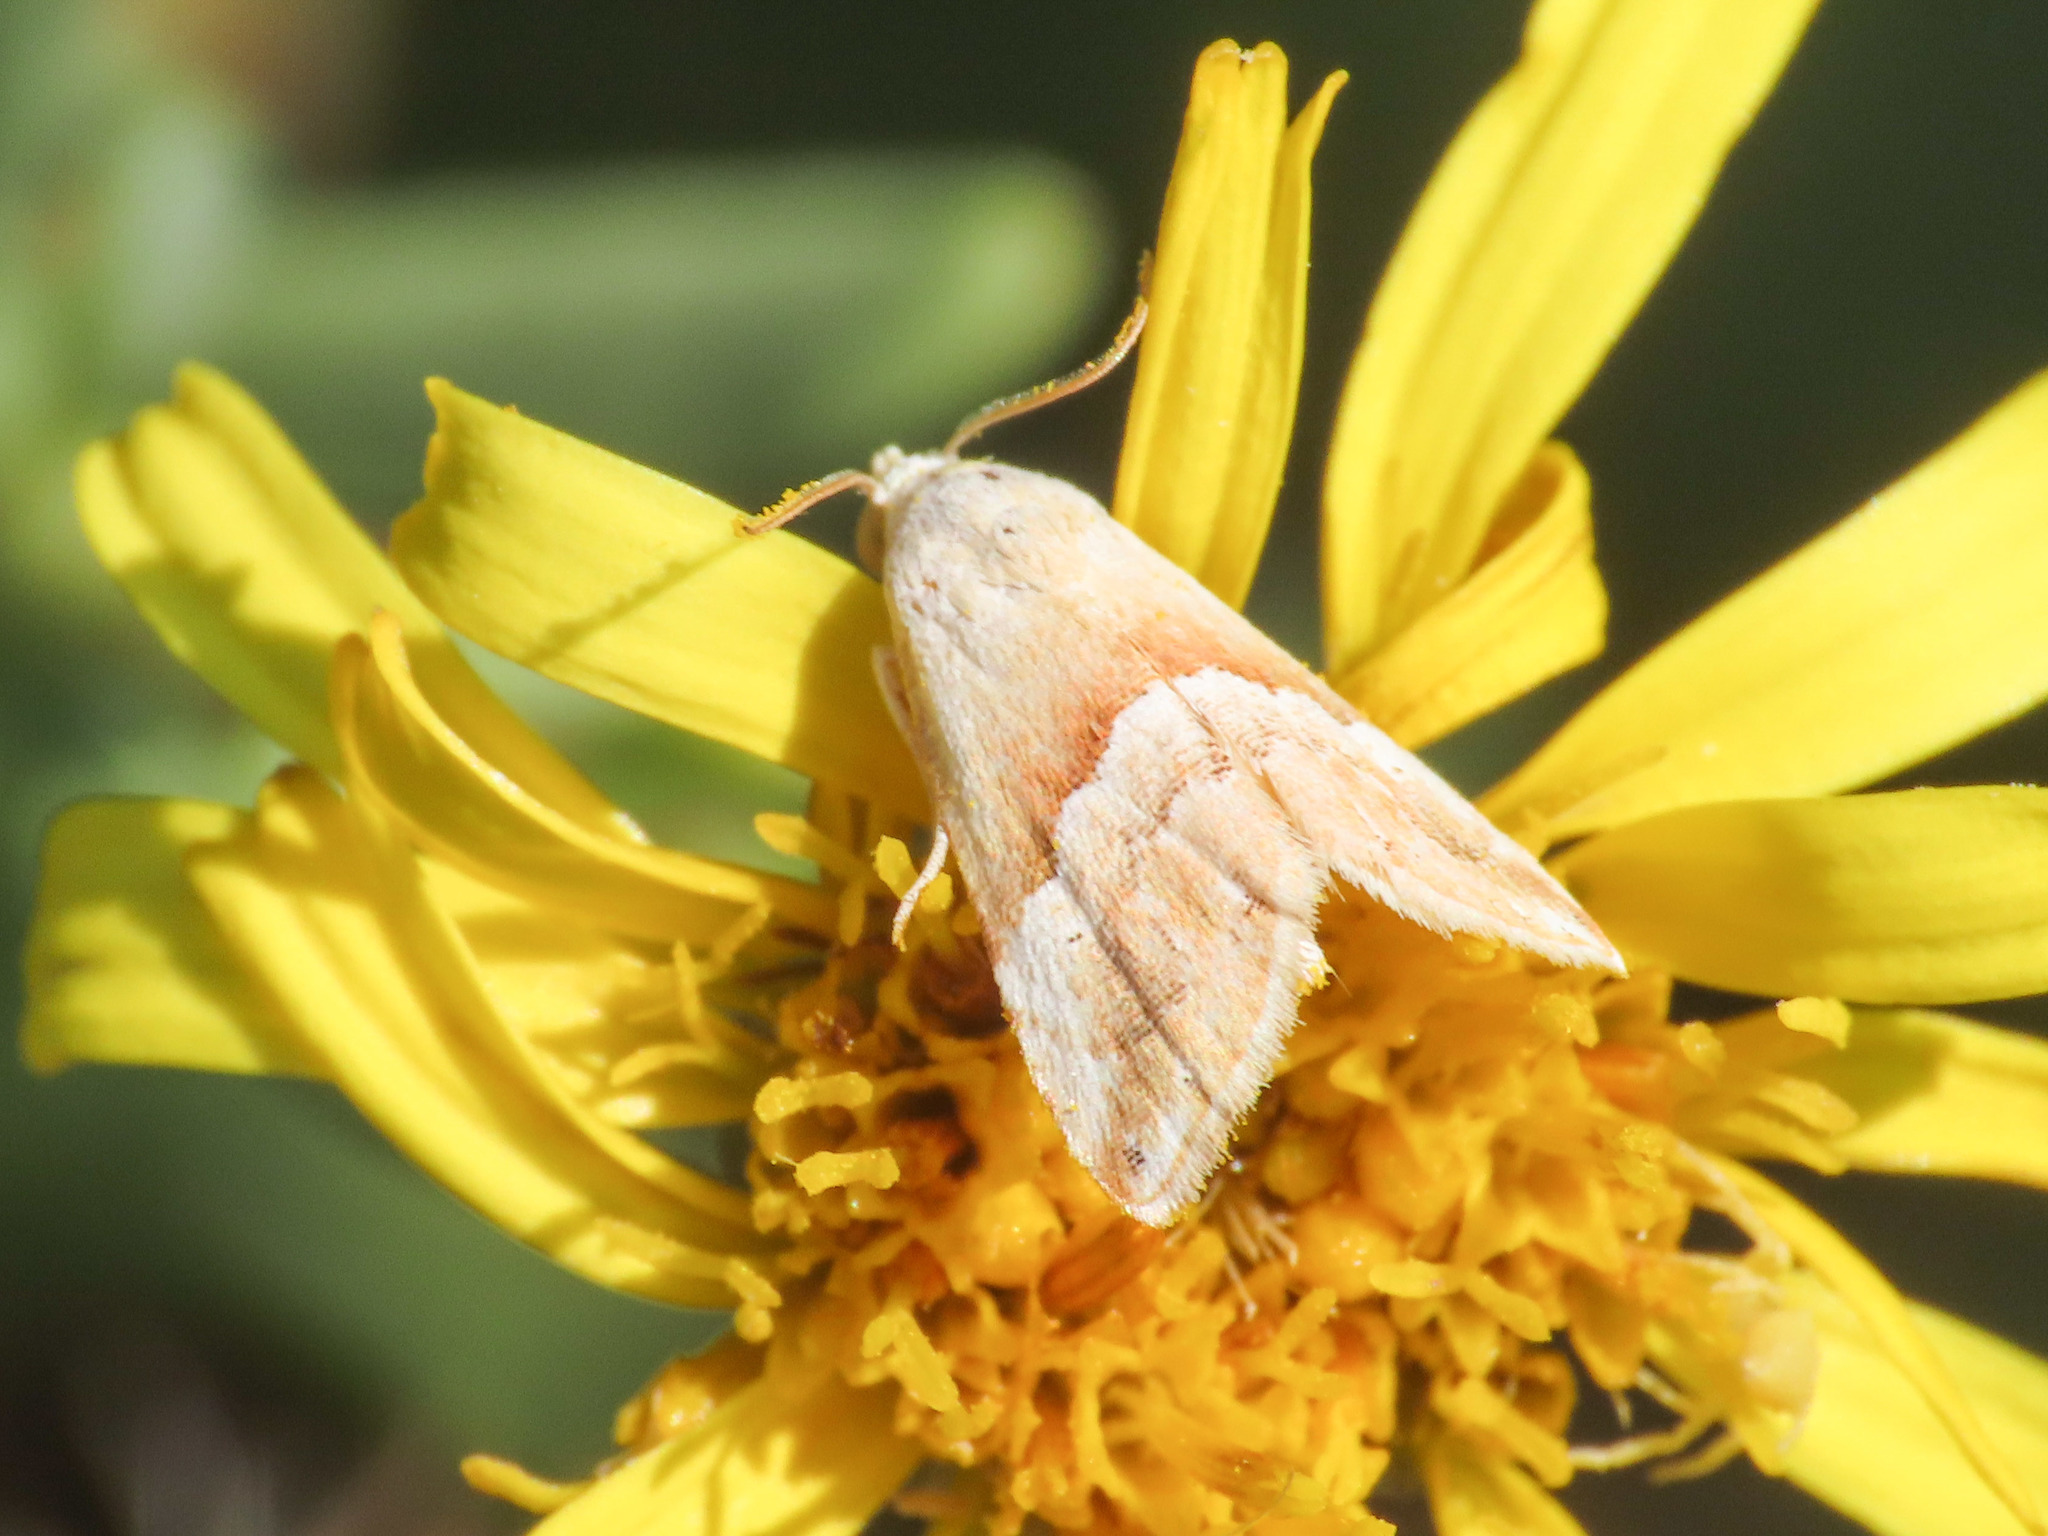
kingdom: Animalia
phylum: Arthropoda
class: Insecta
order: Lepidoptera
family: Noctuidae
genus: Eublemma
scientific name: Eublemma parva
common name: Small marbled
